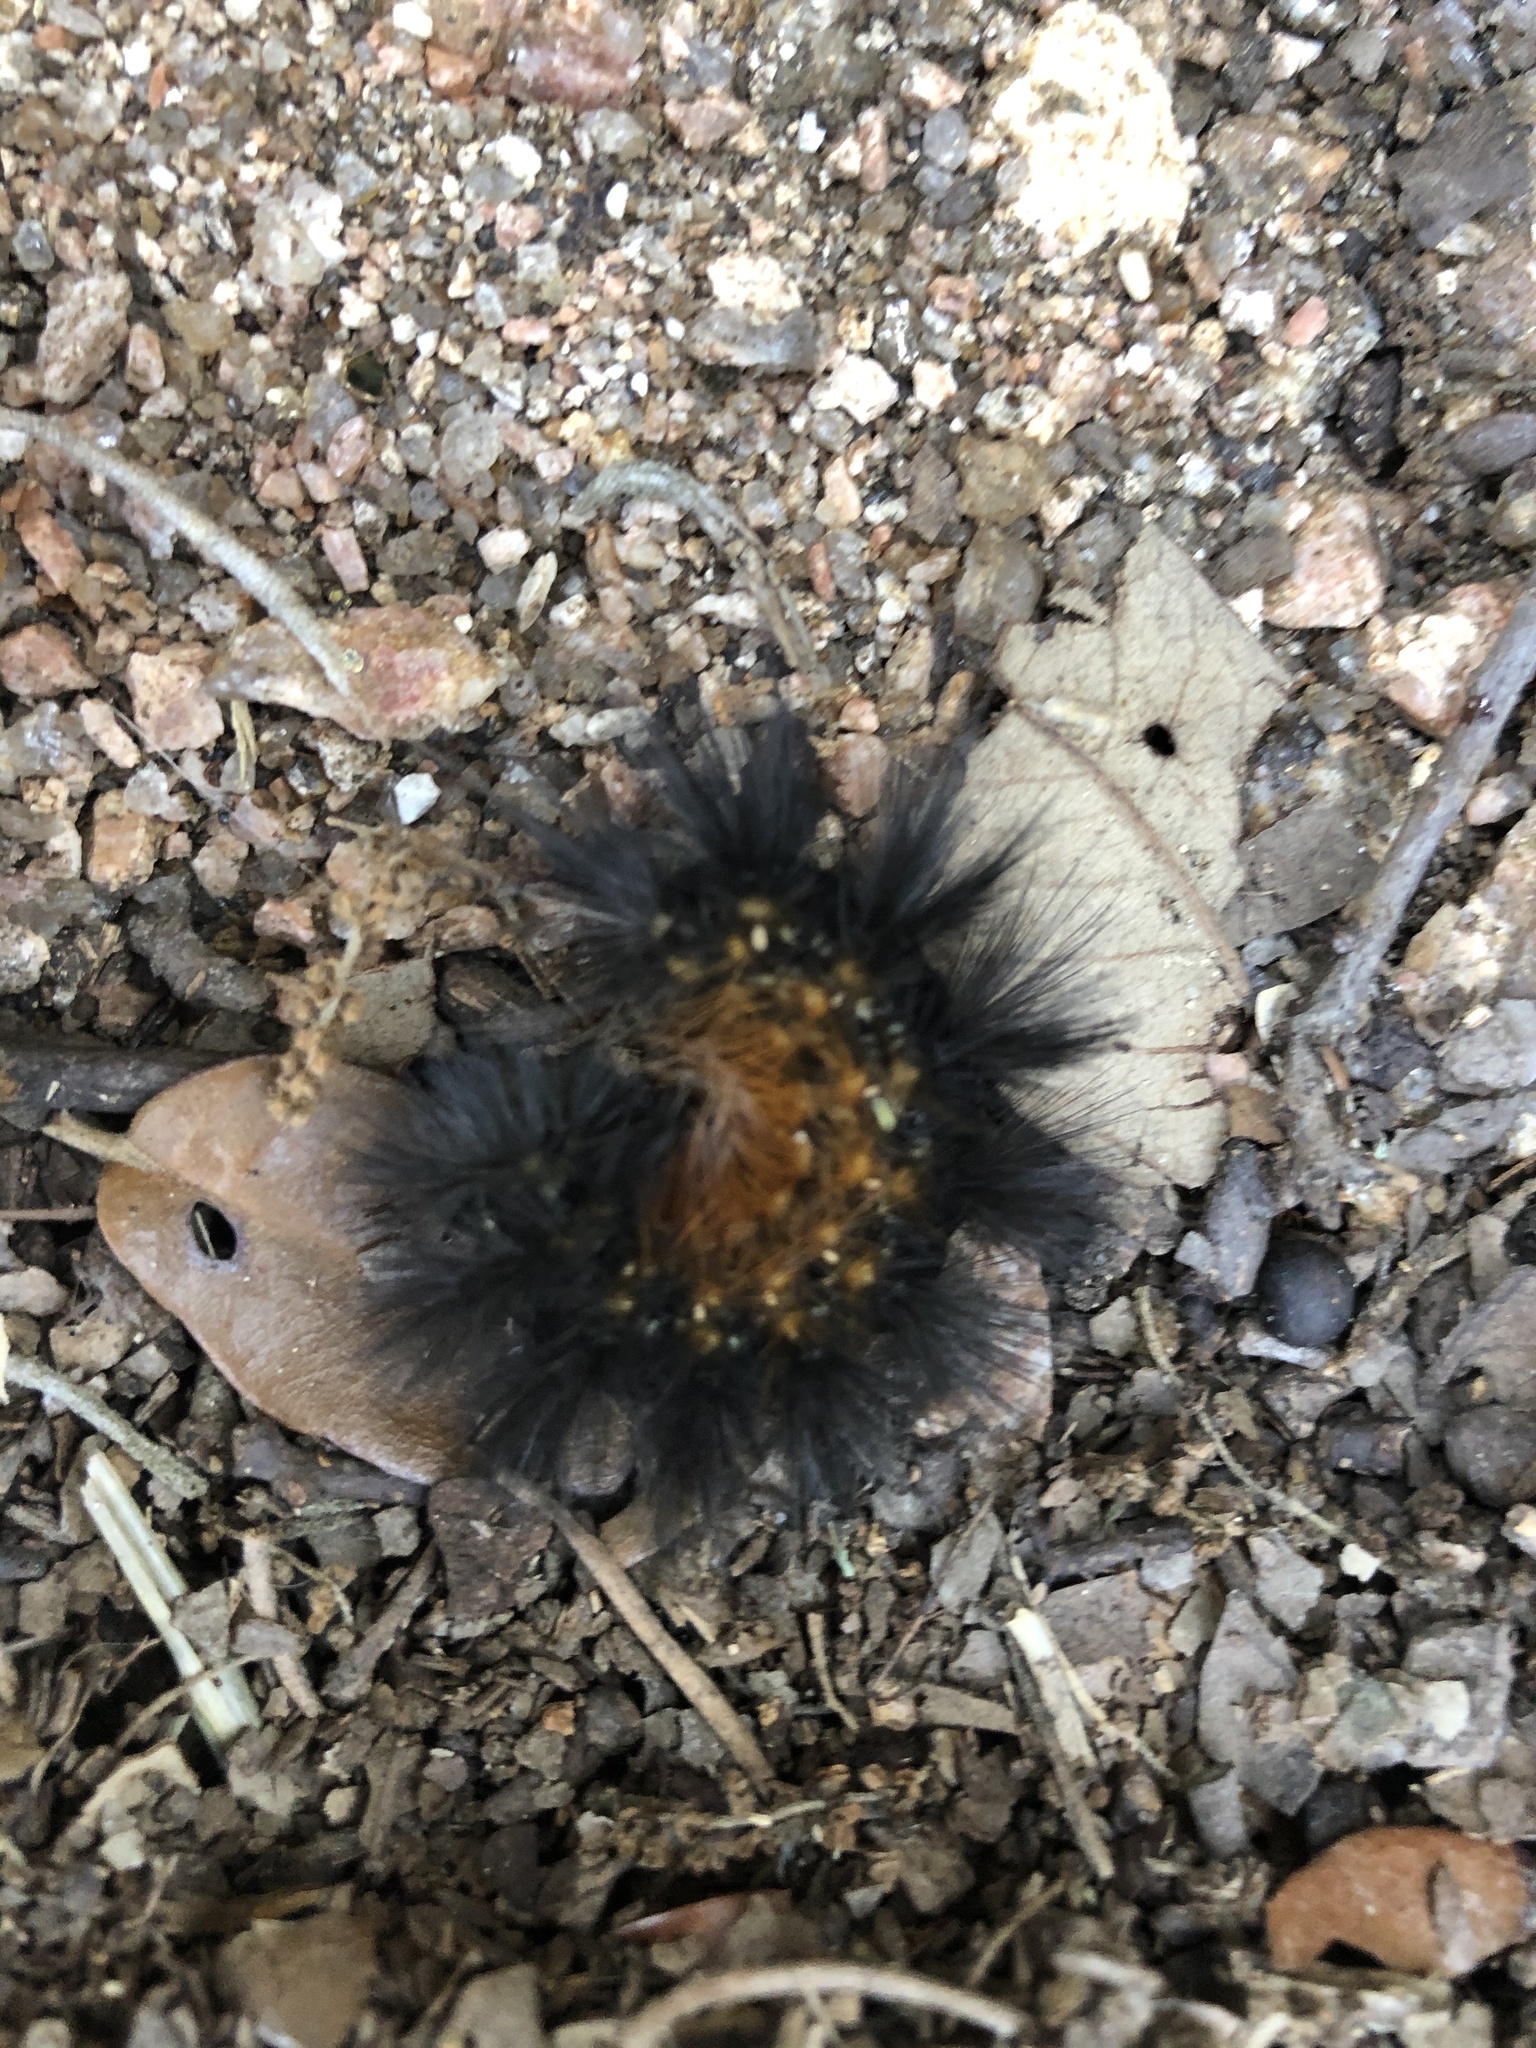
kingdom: Animalia
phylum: Arthropoda
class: Insecta
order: Lepidoptera
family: Erebidae
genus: Estigmene
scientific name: Estigmene acrea
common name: Salt marsh moth
